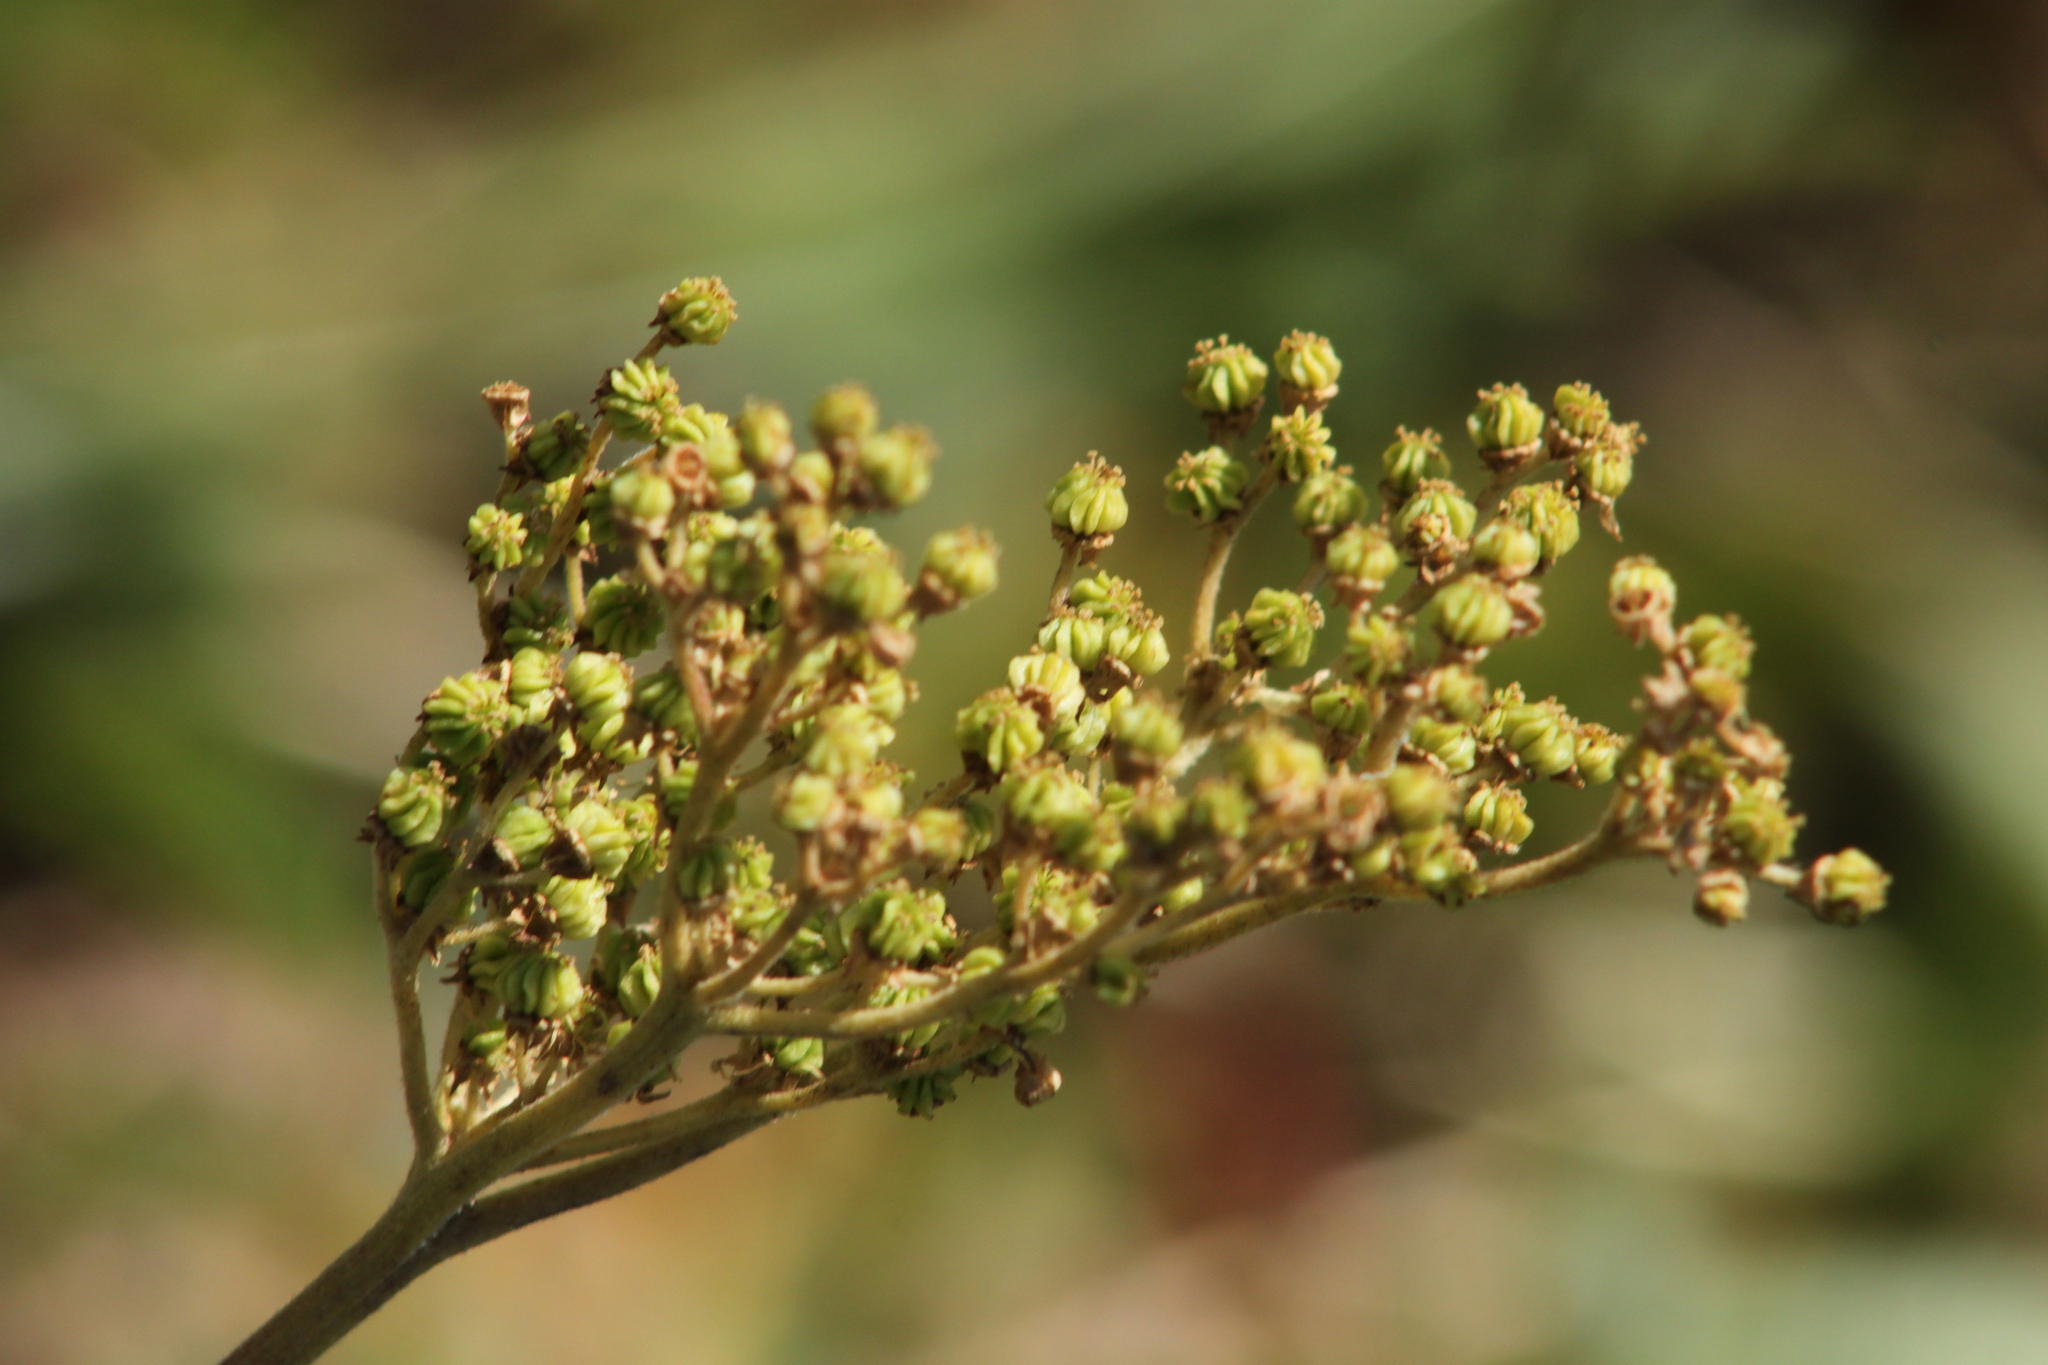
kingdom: Plantae
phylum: Tracheophyta
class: Magnoliopsida
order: Rosales
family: Rosaceae
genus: Filipendula
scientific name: Filipendula ulmaria
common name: Meadowsweet
